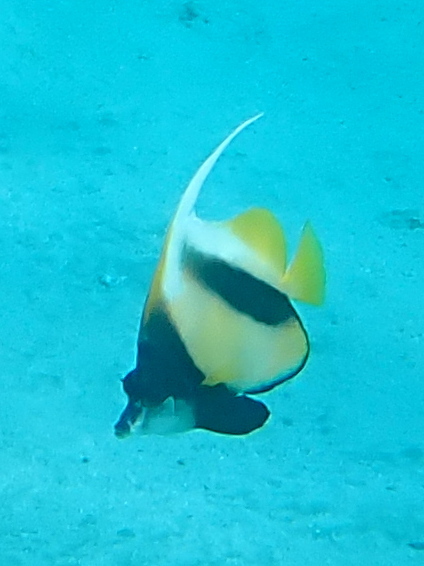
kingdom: Animalia
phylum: Chordata
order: Perciformes
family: Chaetodontidae
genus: Heniochus
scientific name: Heniochus intermedius
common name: Red sea bannerfish
